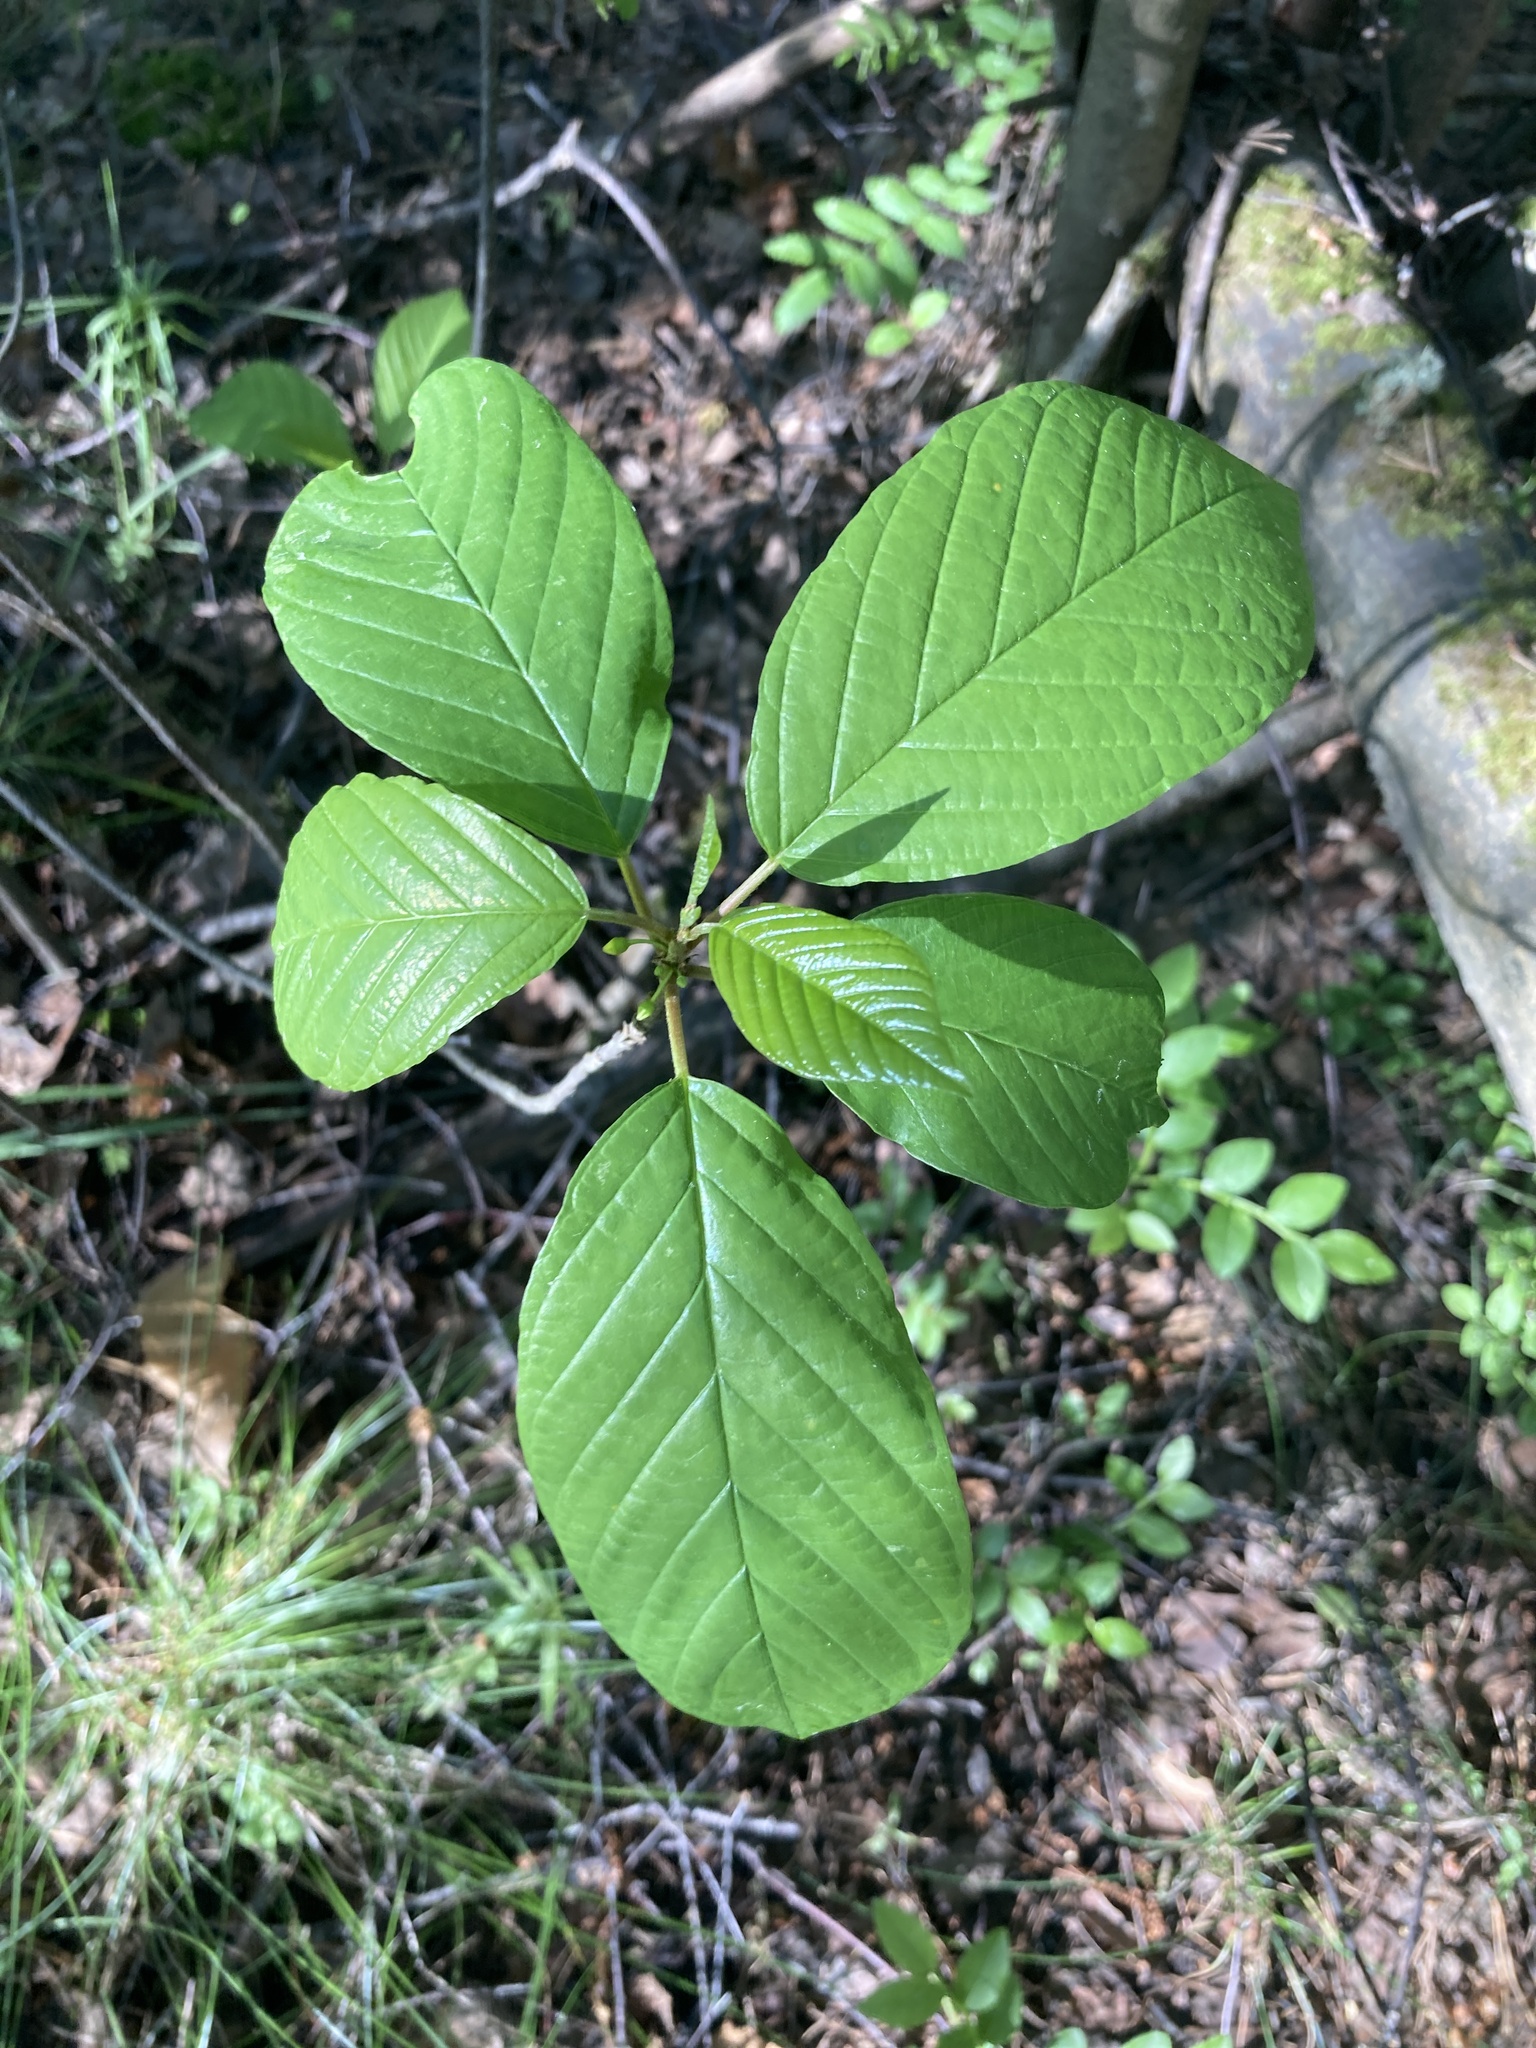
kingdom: Plantae
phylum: Tracheophyta
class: Magnoliopsida
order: Rosales
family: Rhamnaceae
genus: Frangula
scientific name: Frangula alnus
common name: Alder buckthorn
